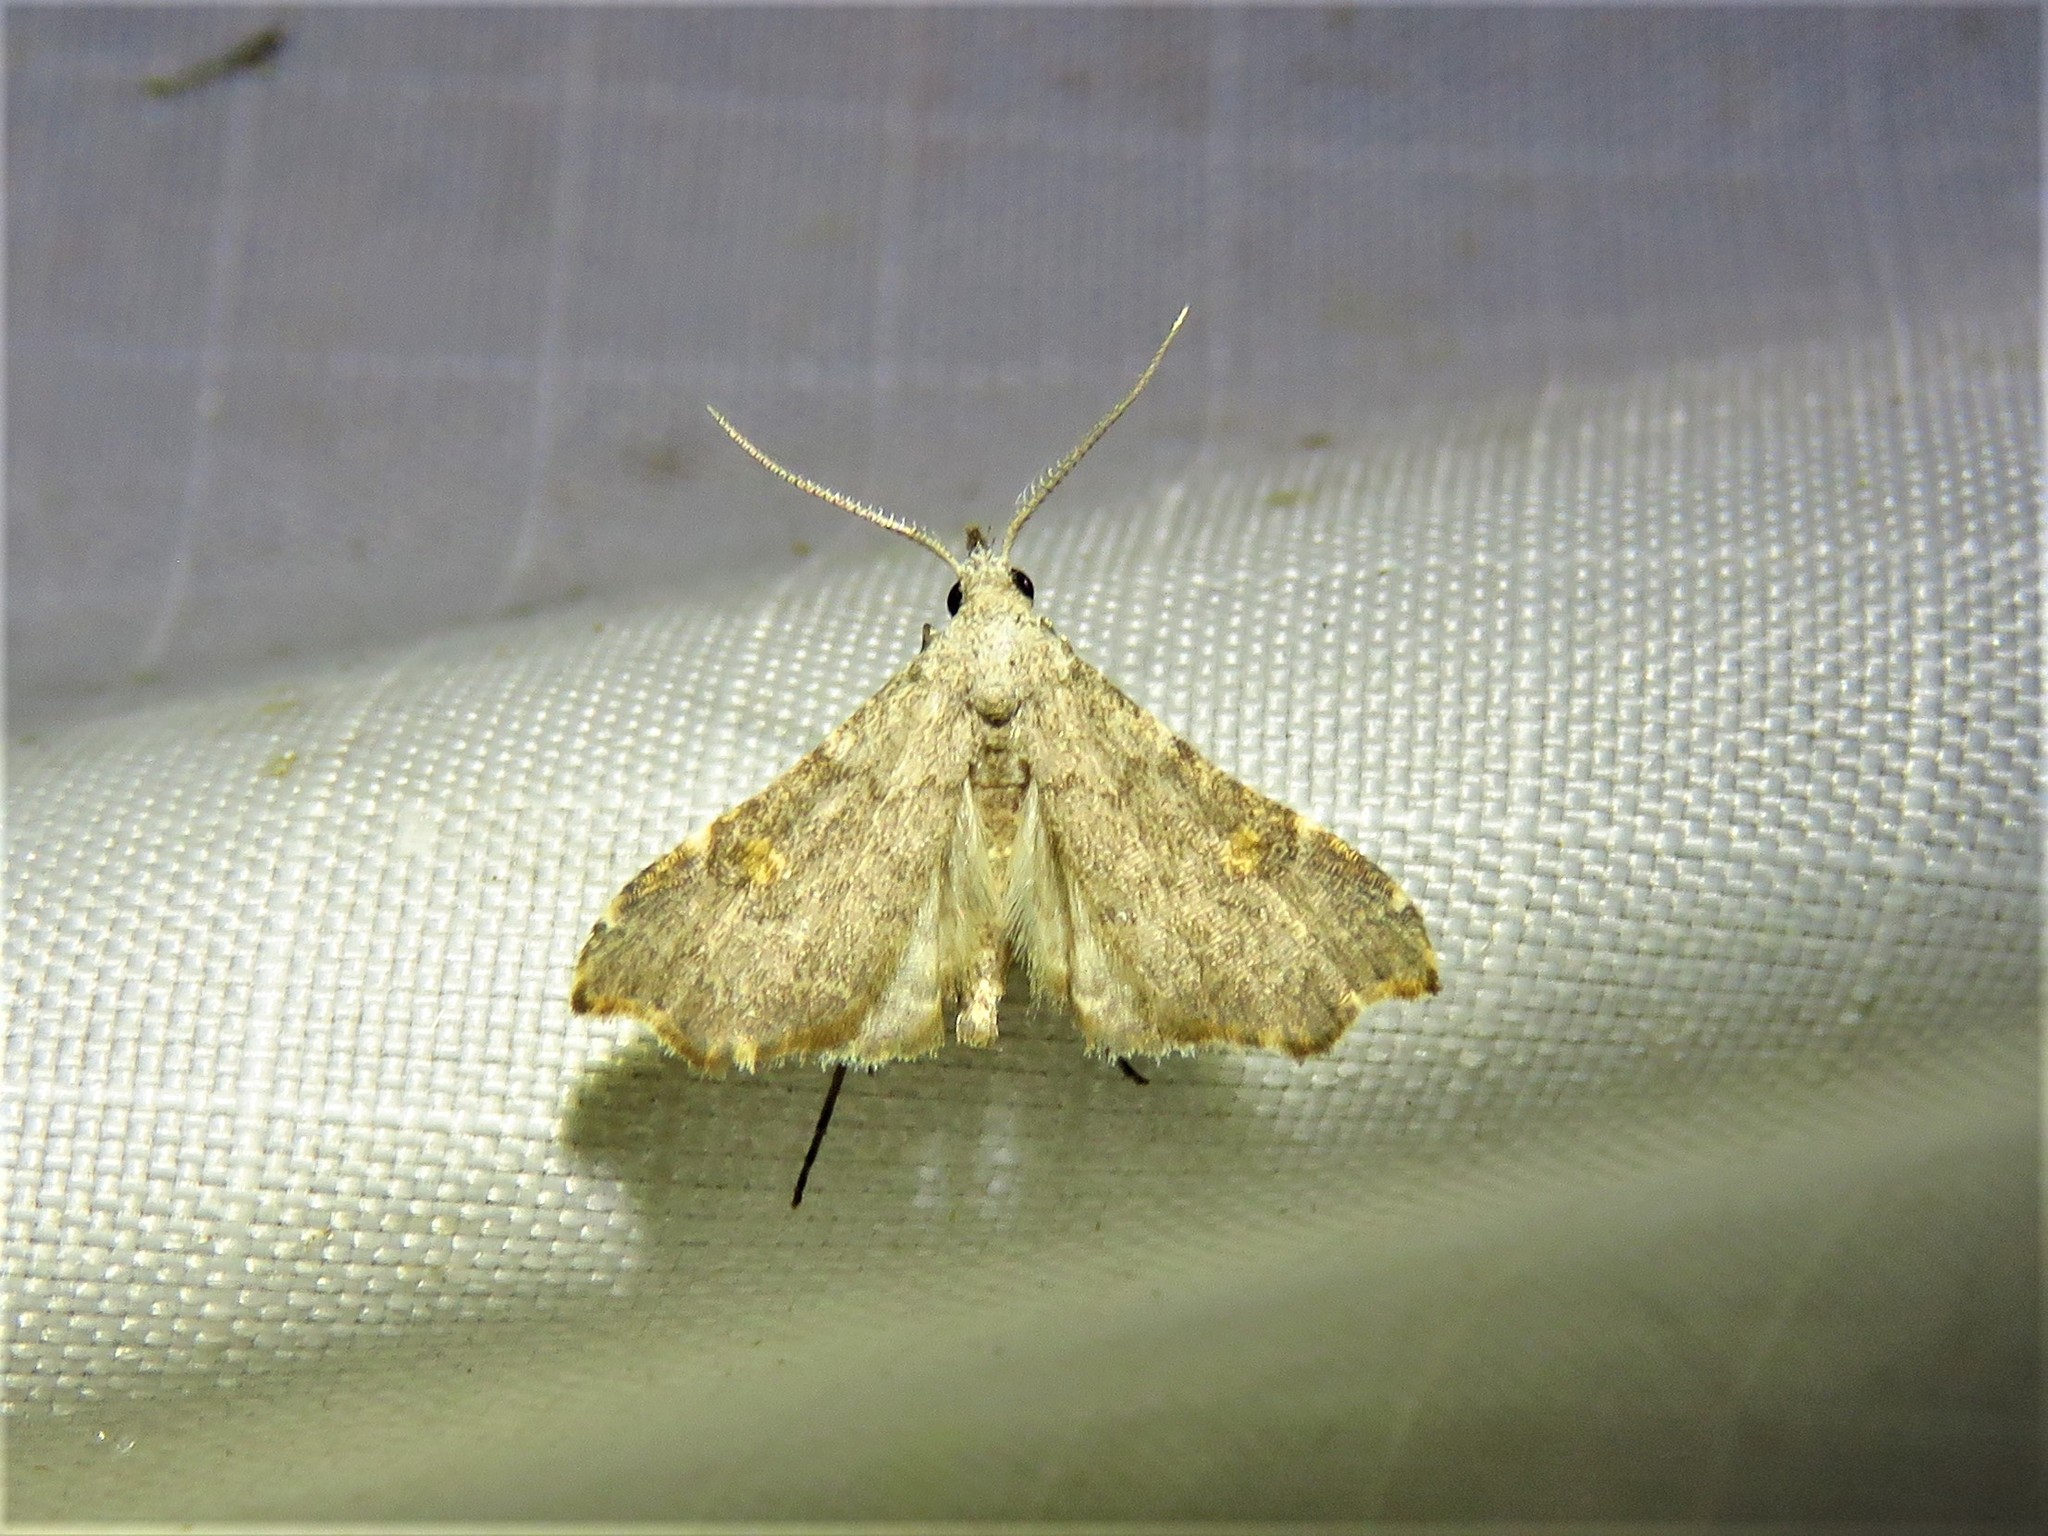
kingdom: Animalia
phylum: Arthropoda
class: Insecta
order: Lepidoptera
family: Erebidae
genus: Redectis
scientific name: Redectis pygmaea
